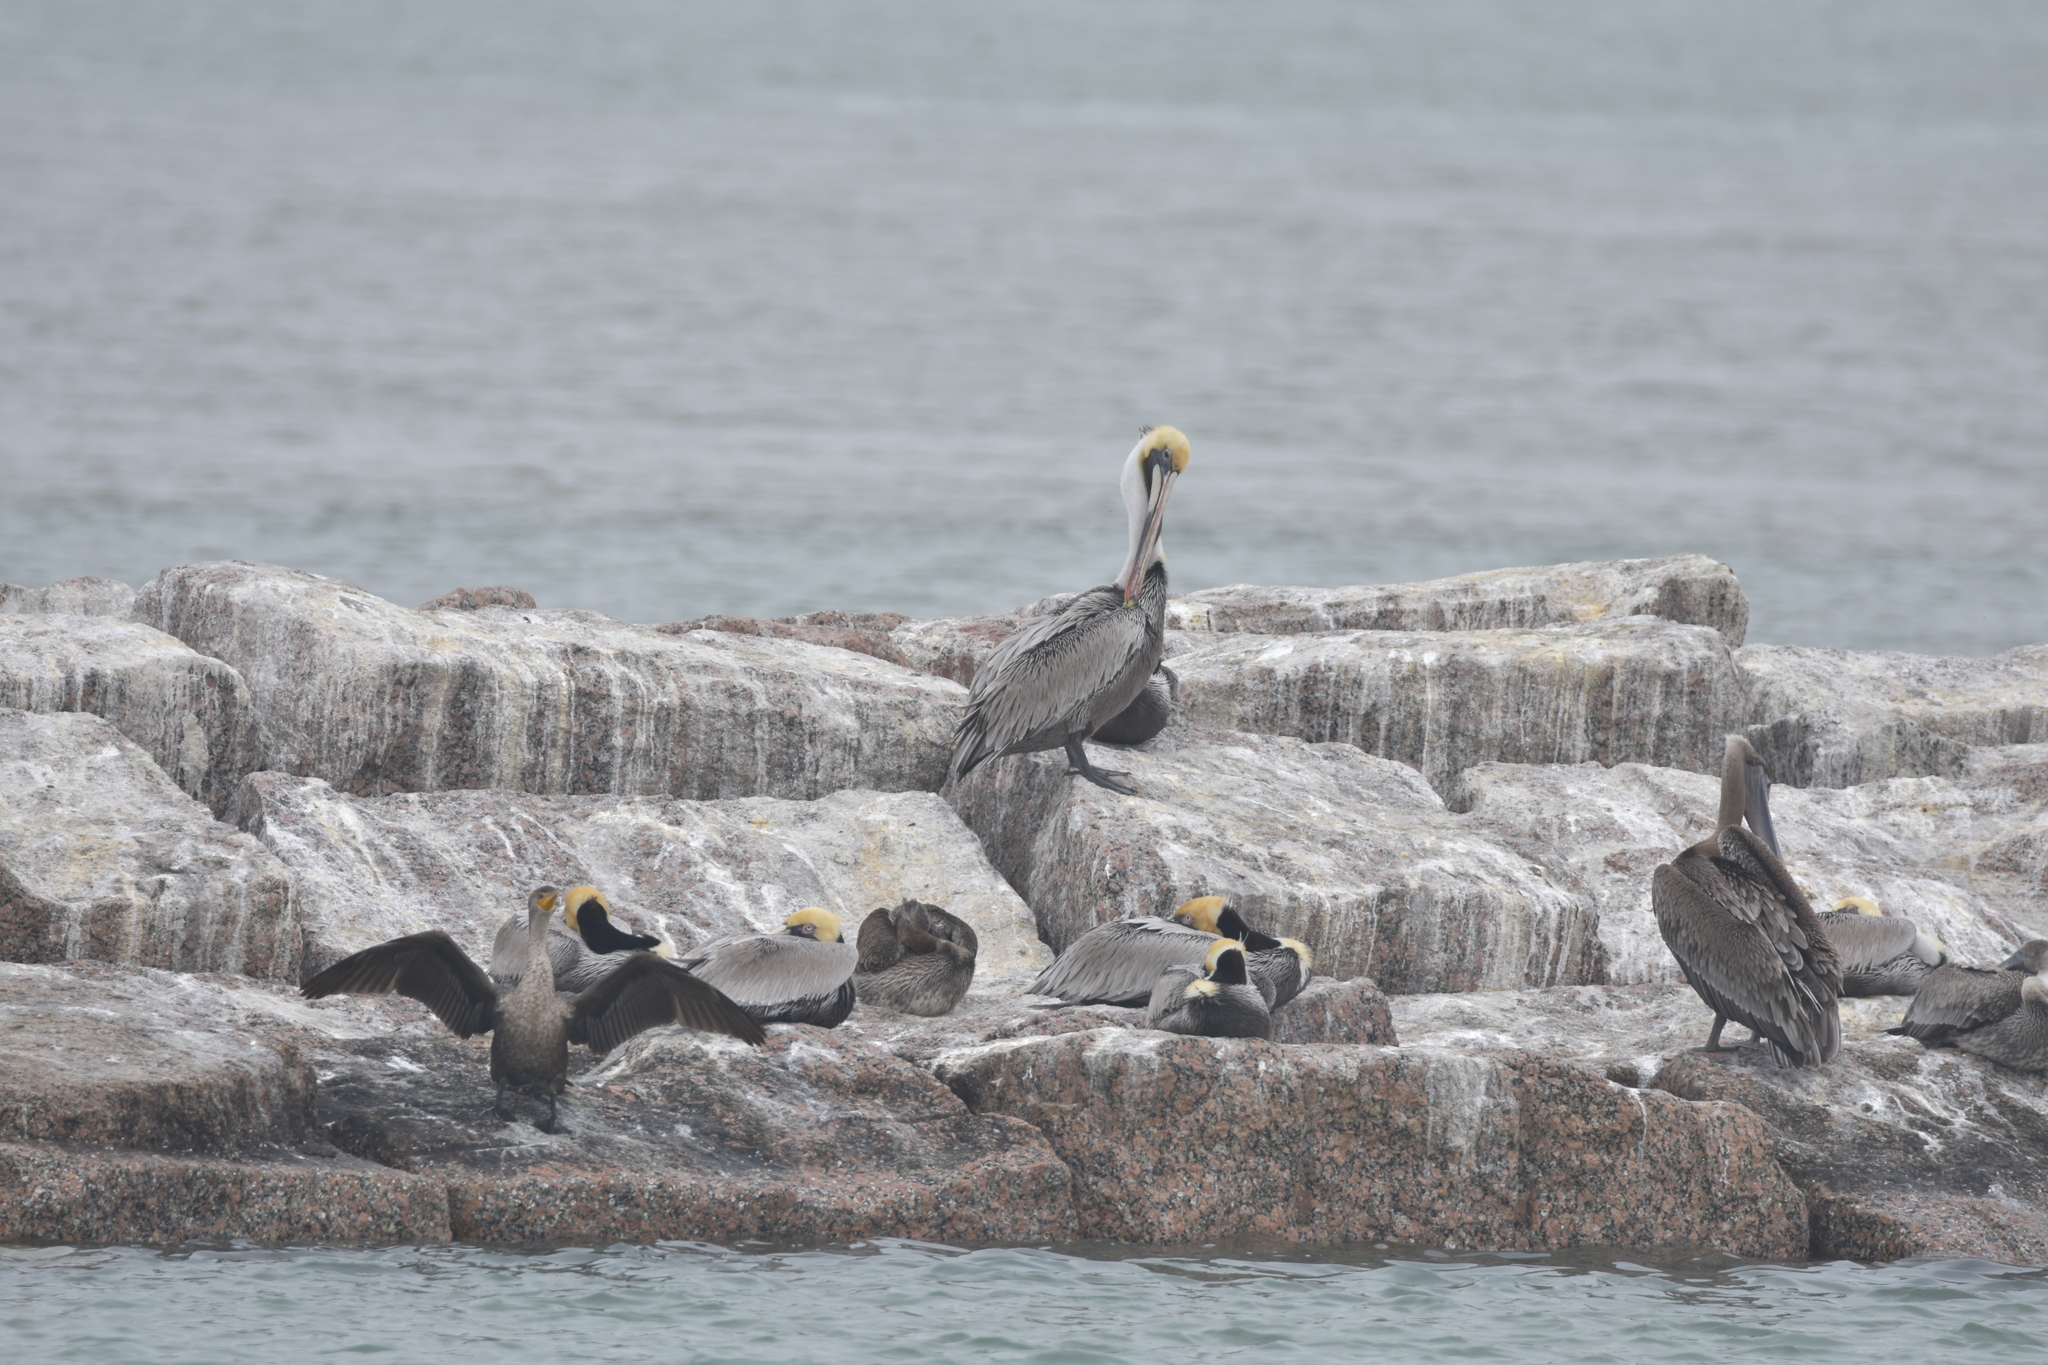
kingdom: Animalia
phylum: Chordata
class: Aves
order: Pelecaniformes
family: Pelecanidae
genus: Pelecanus
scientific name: Pelecanus occidentalis
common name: Brown pelican
